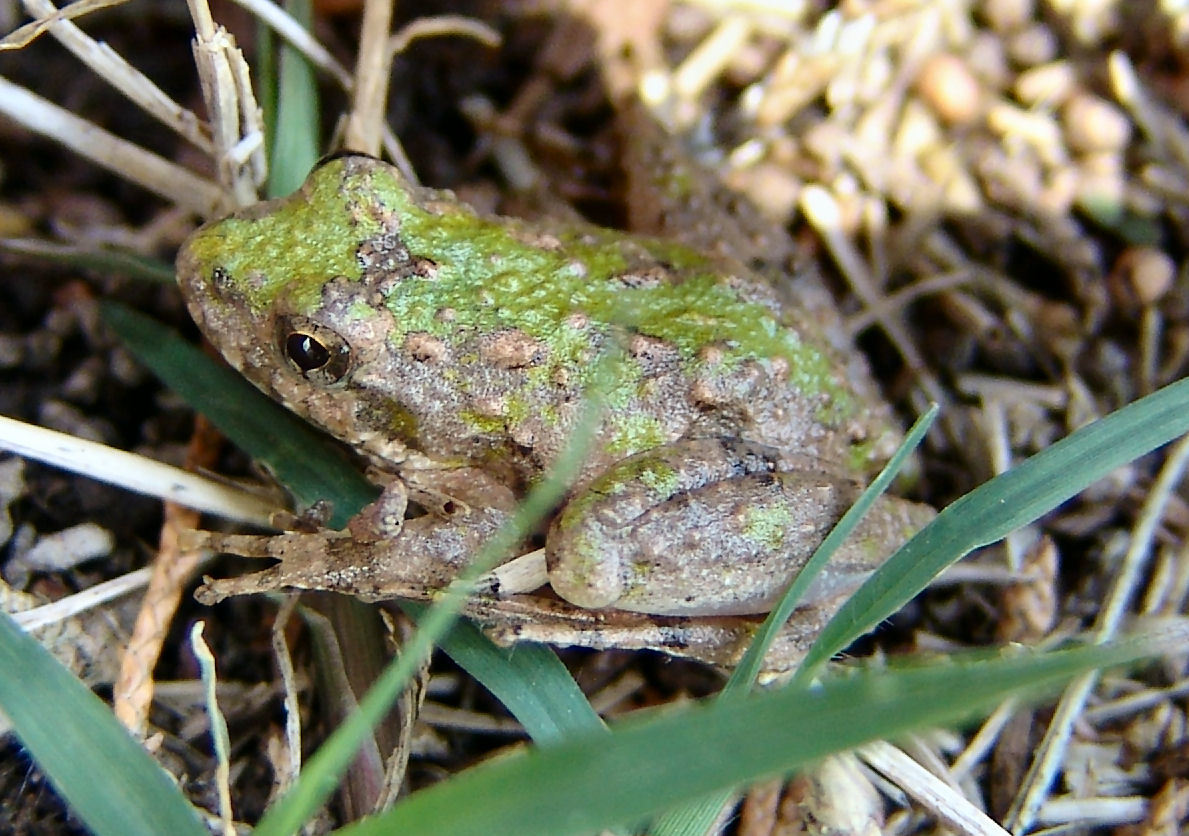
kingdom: Animalia
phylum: Chordata
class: Amphibia
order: Anura
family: Hylidae
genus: Acris
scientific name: Acris blanchardi
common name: Blanchard's cricket frog
